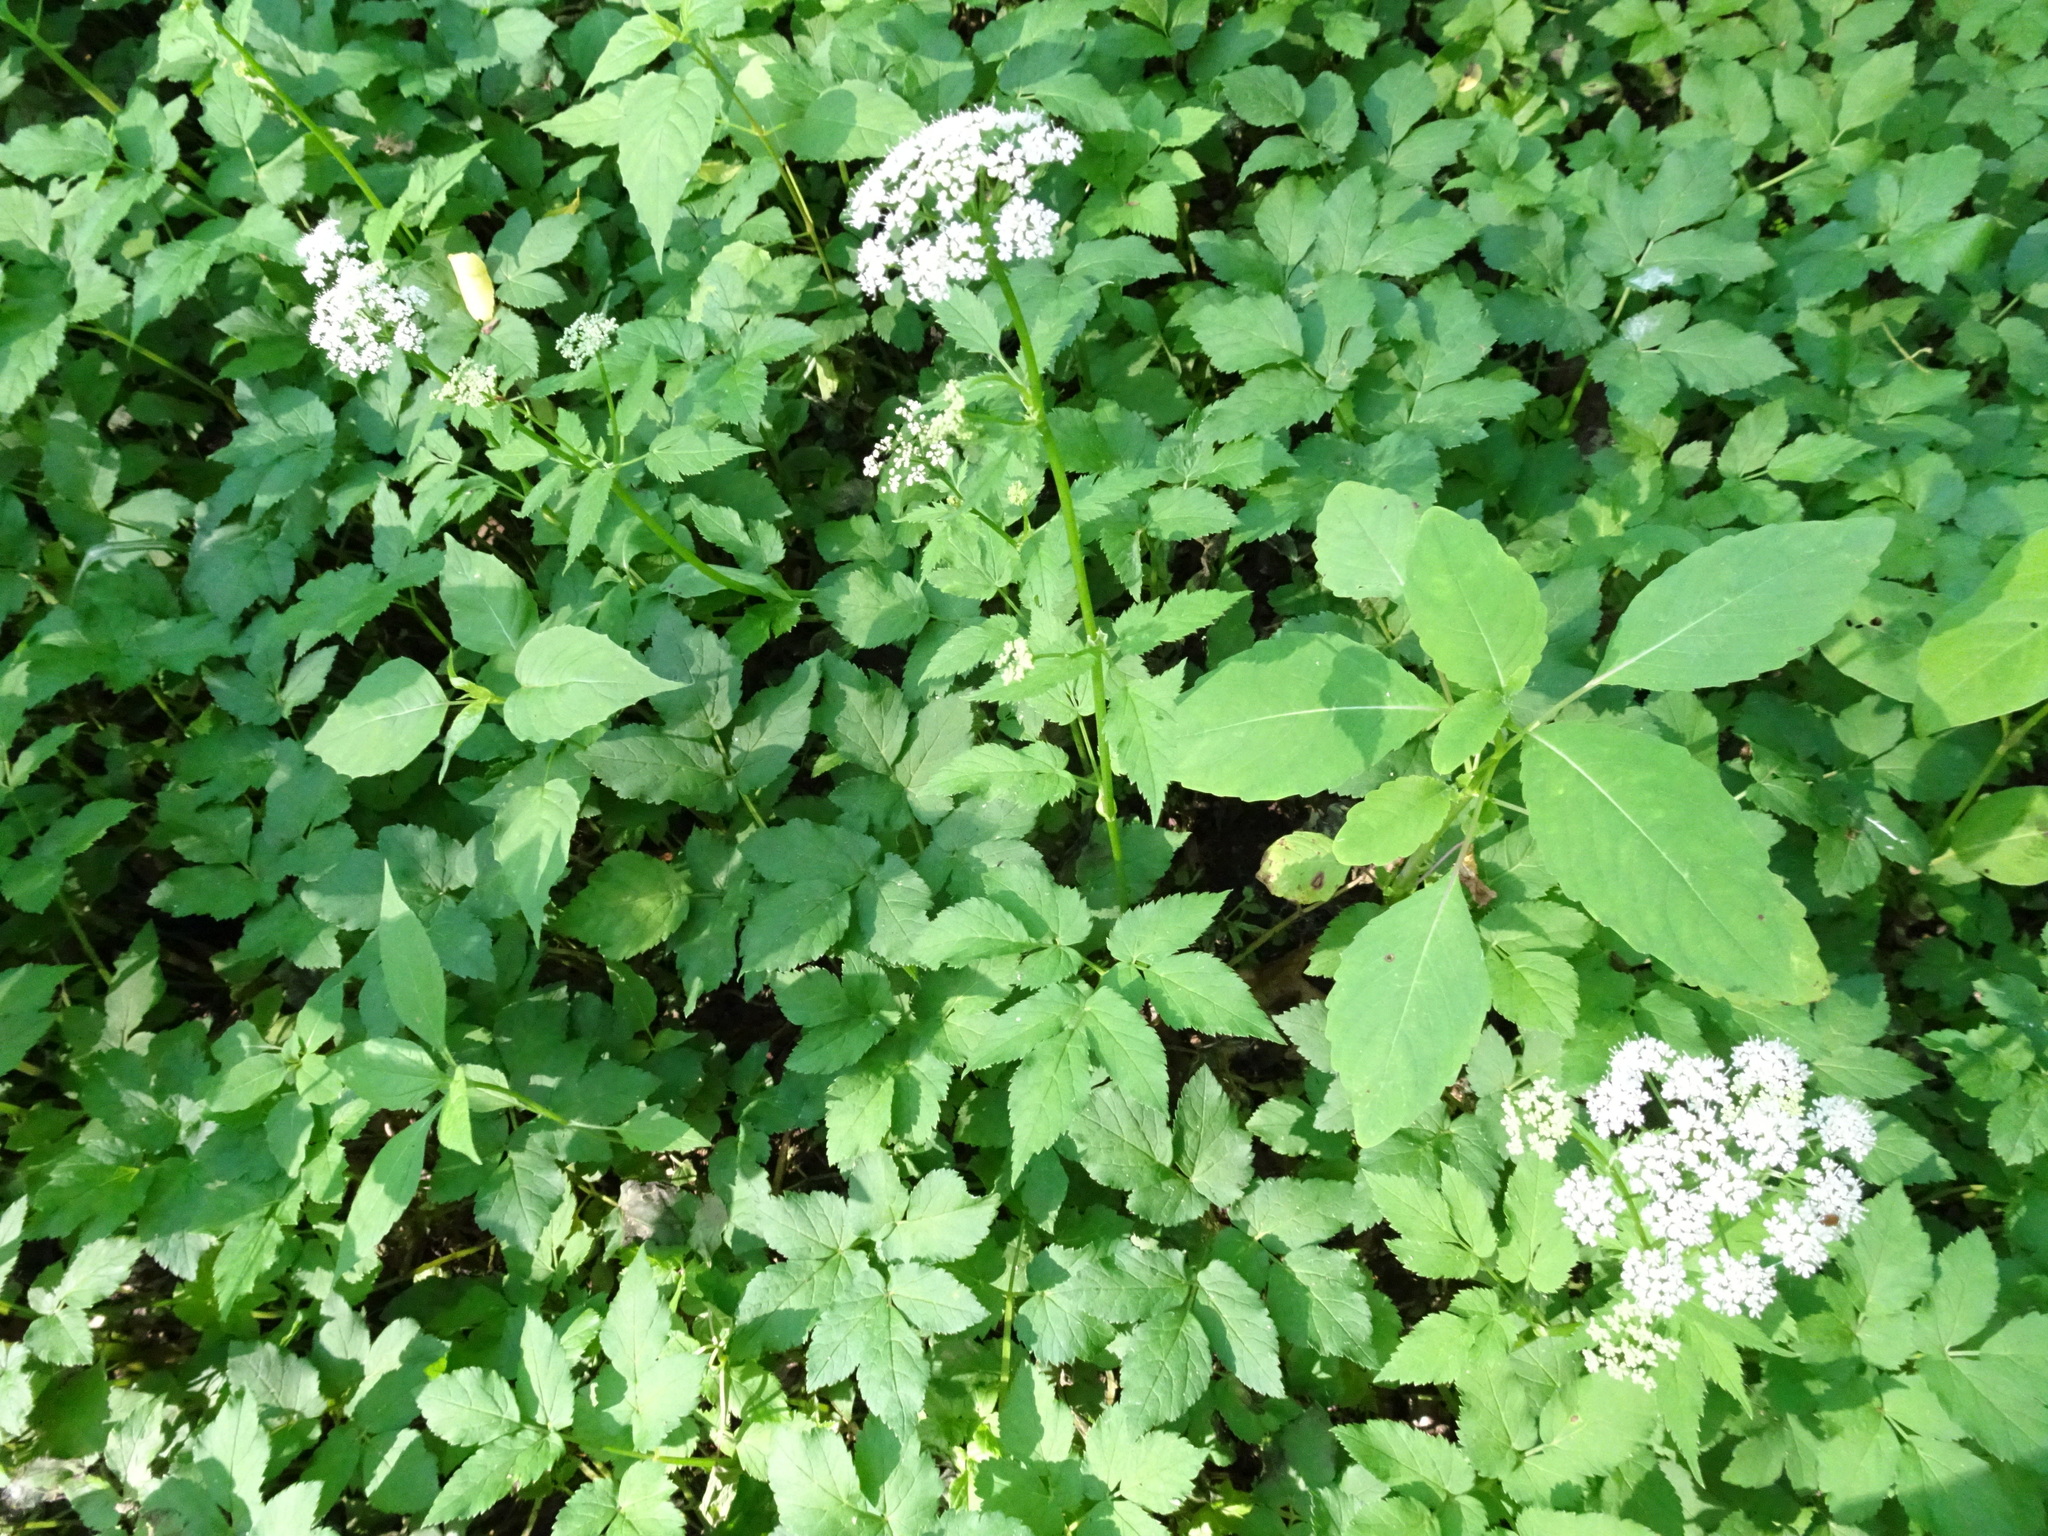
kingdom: Plantae
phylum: Tracheophyta
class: Magnoliopsida
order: Apiales
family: Apiaceae
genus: Aegopodium
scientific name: Aegopodium podagraria
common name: Ground-elder
